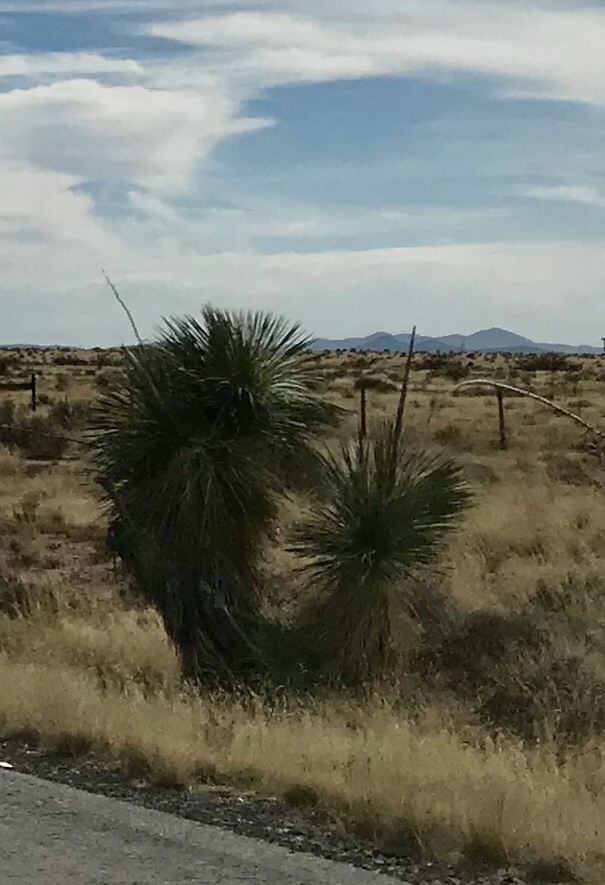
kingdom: Plantae
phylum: Tracheophyta
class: Liliopsida
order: Asparagales
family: Asparagaceae
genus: Yucca
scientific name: Yucca elata
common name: Palmella
